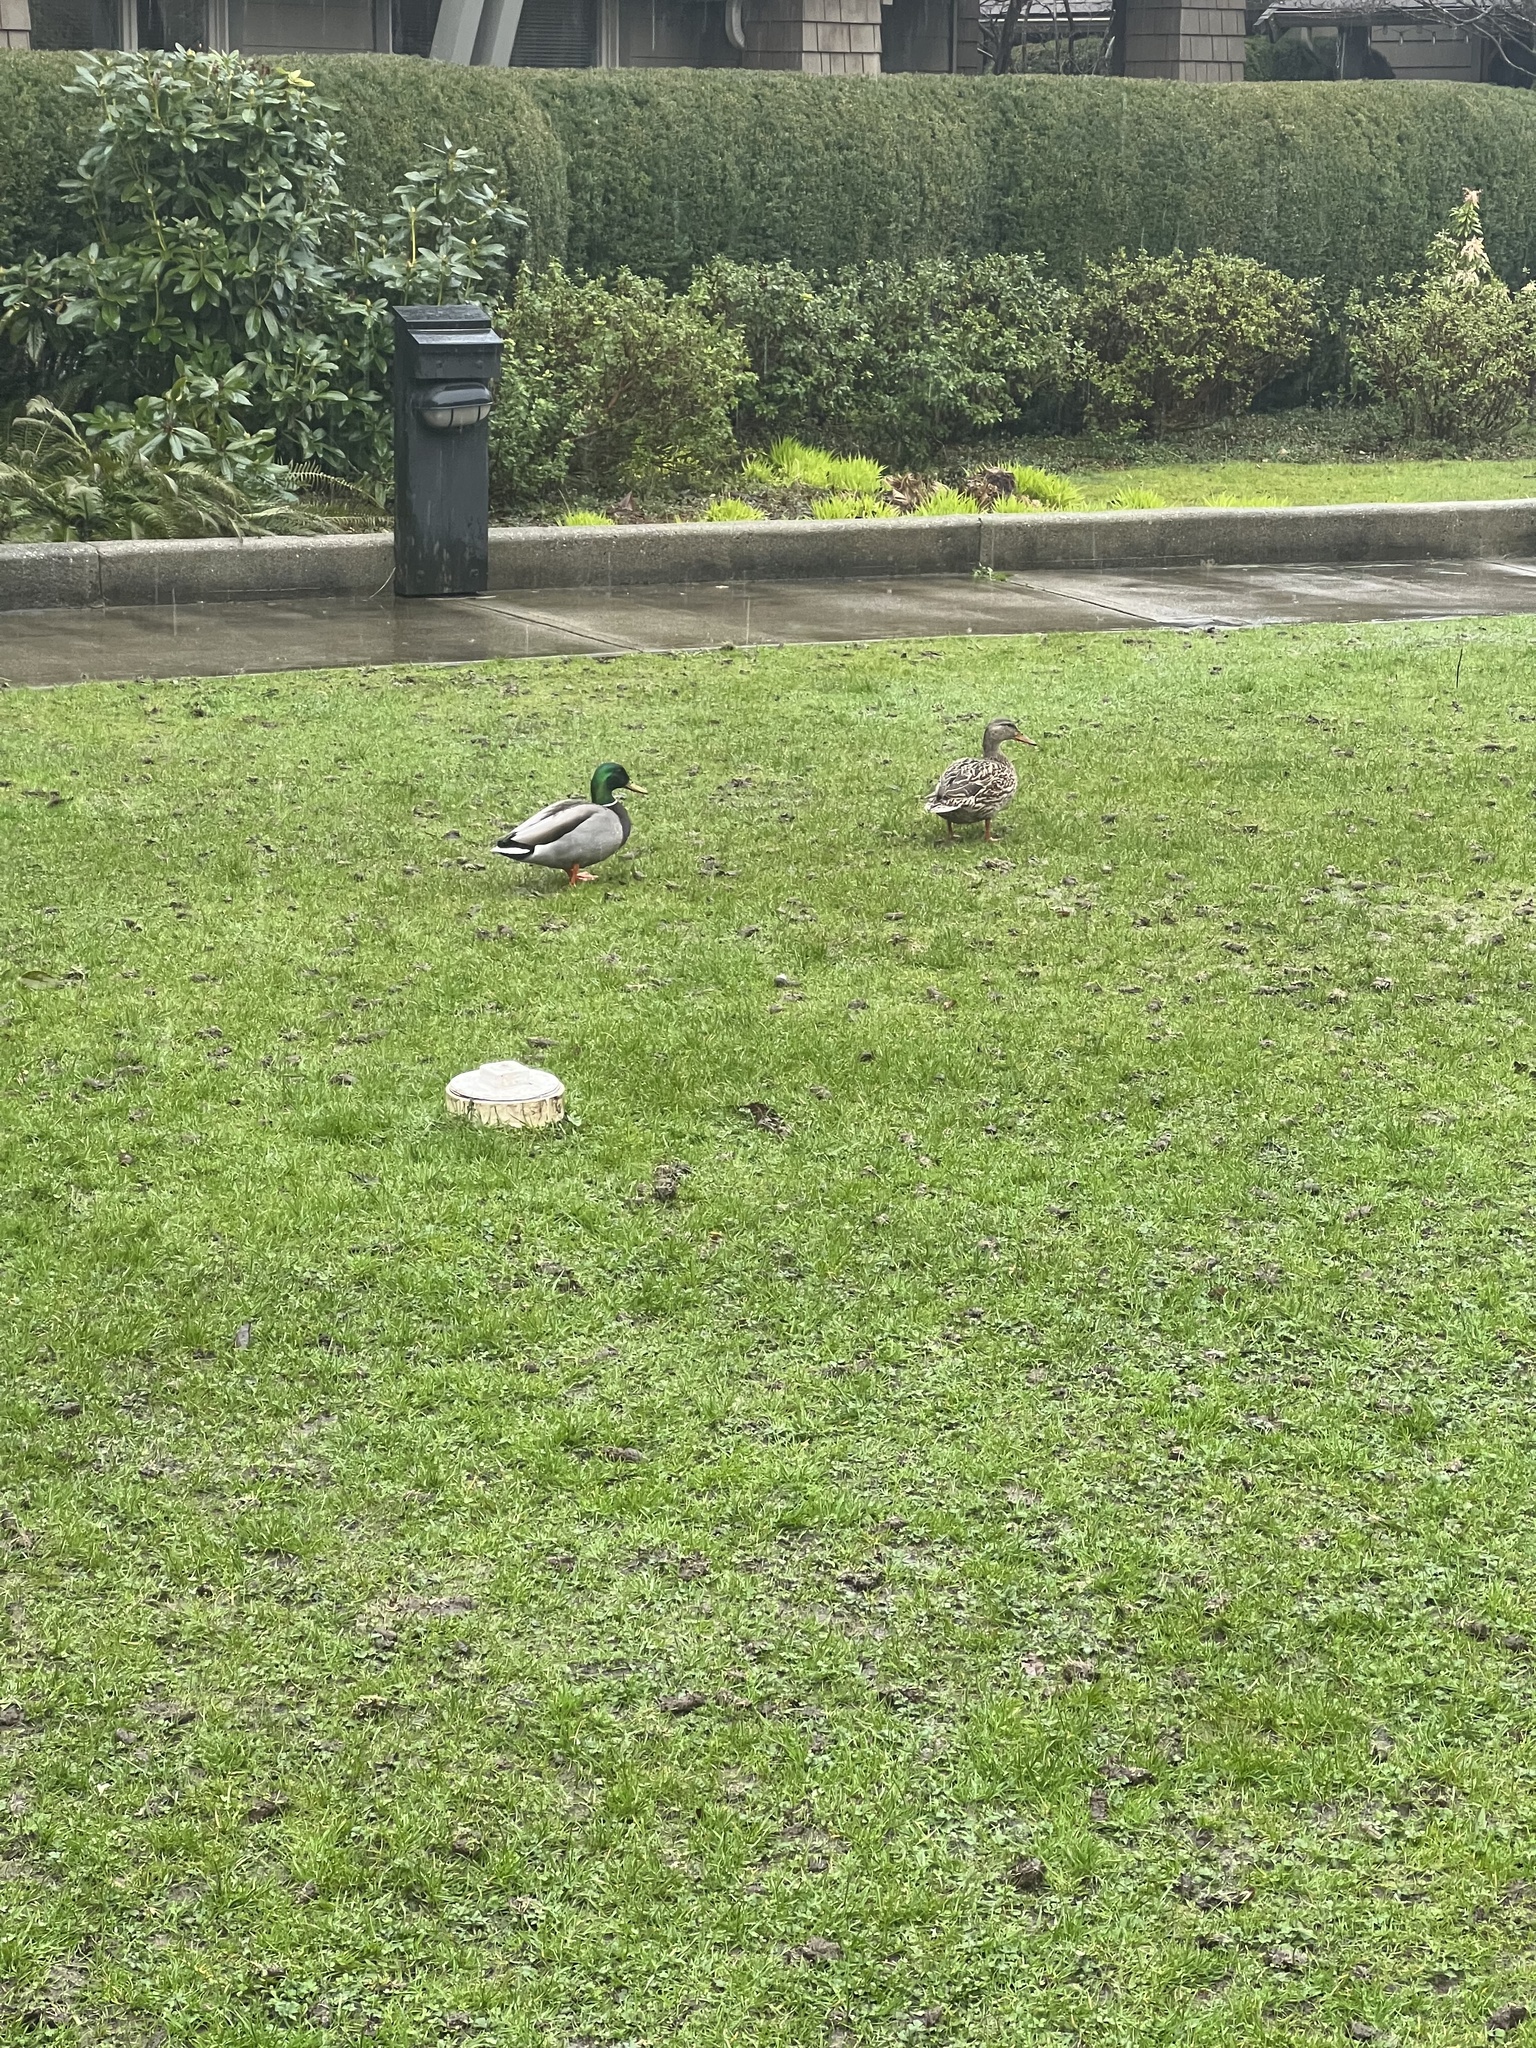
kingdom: Animalia
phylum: Chordata
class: Aves
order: Anseriformes
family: Anatidae
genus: Anas
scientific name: Anas platyrhynchos
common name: Mallard
